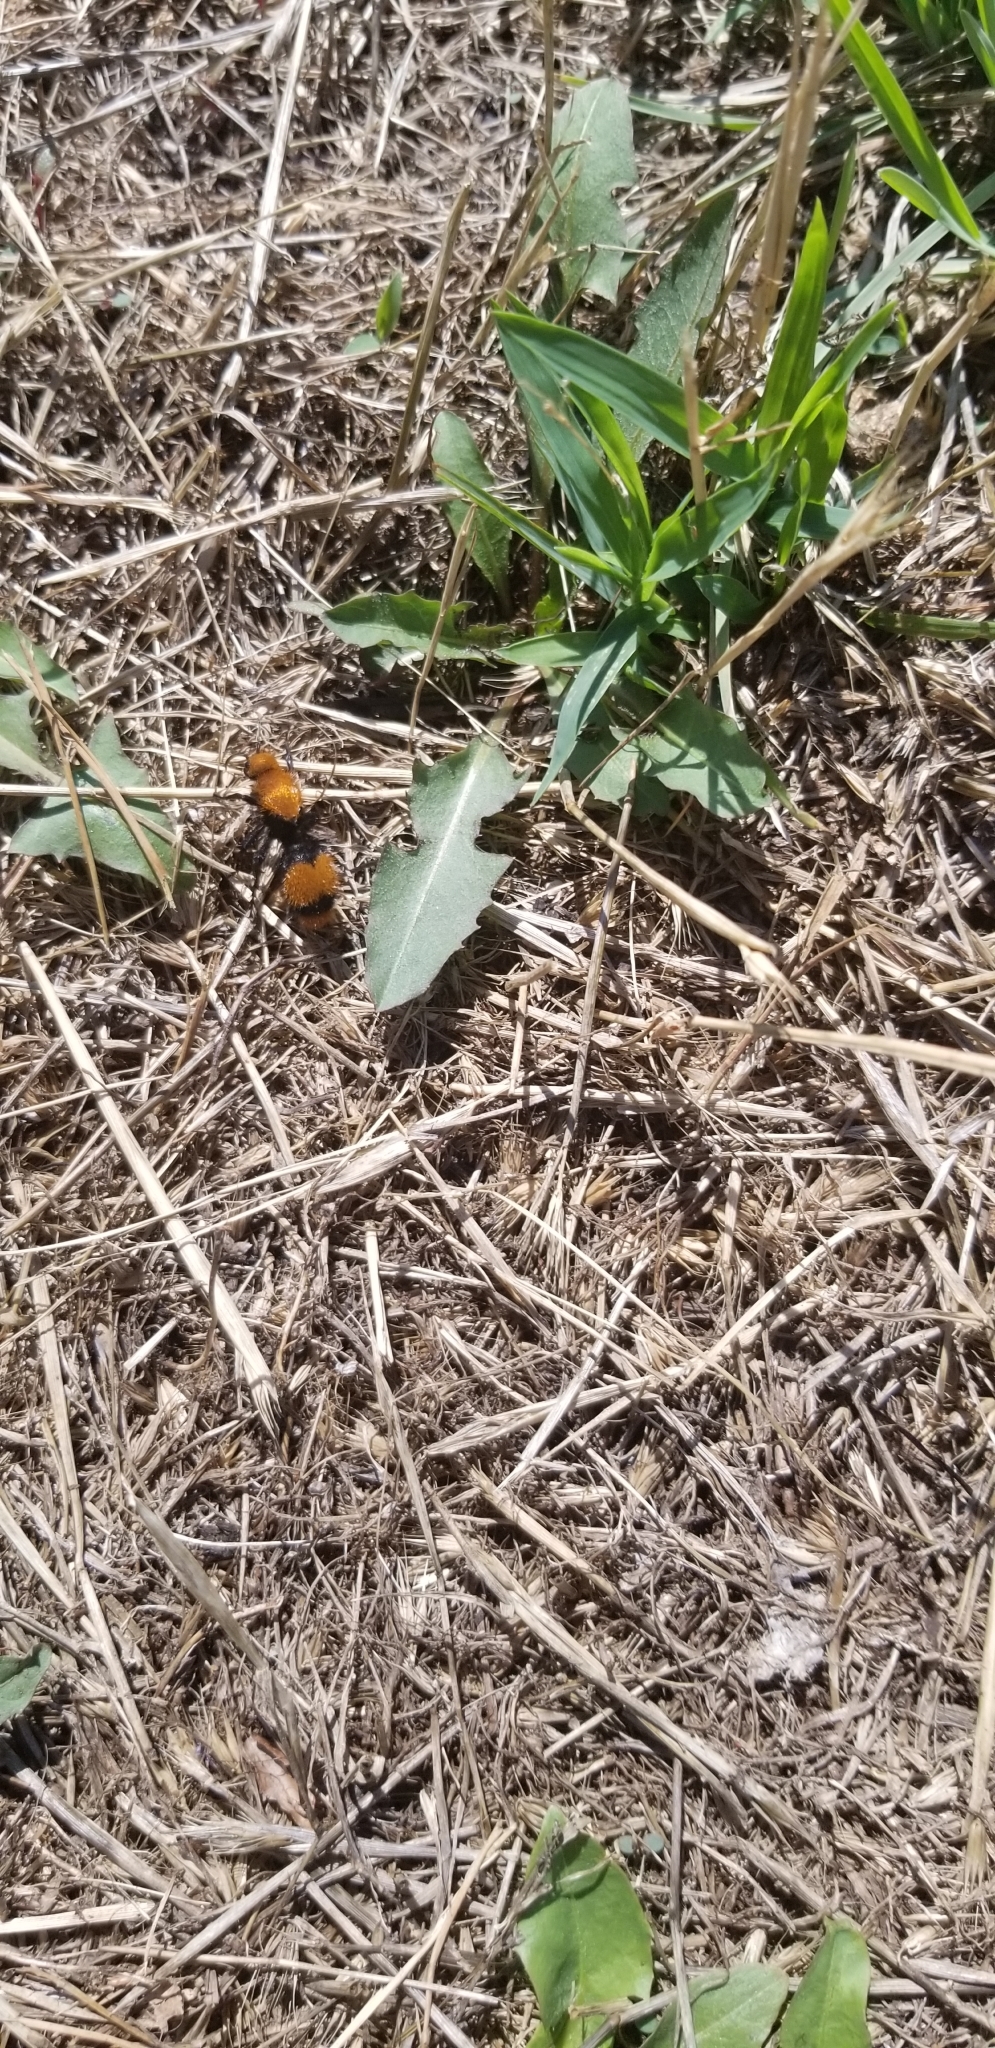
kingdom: Animalia
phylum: Arthropoda
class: Insecta
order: Hymenoptera
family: Mutillidae
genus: Dasymutilla
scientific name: Dasymutilla occidentalis
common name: Common eastern velvet ant
